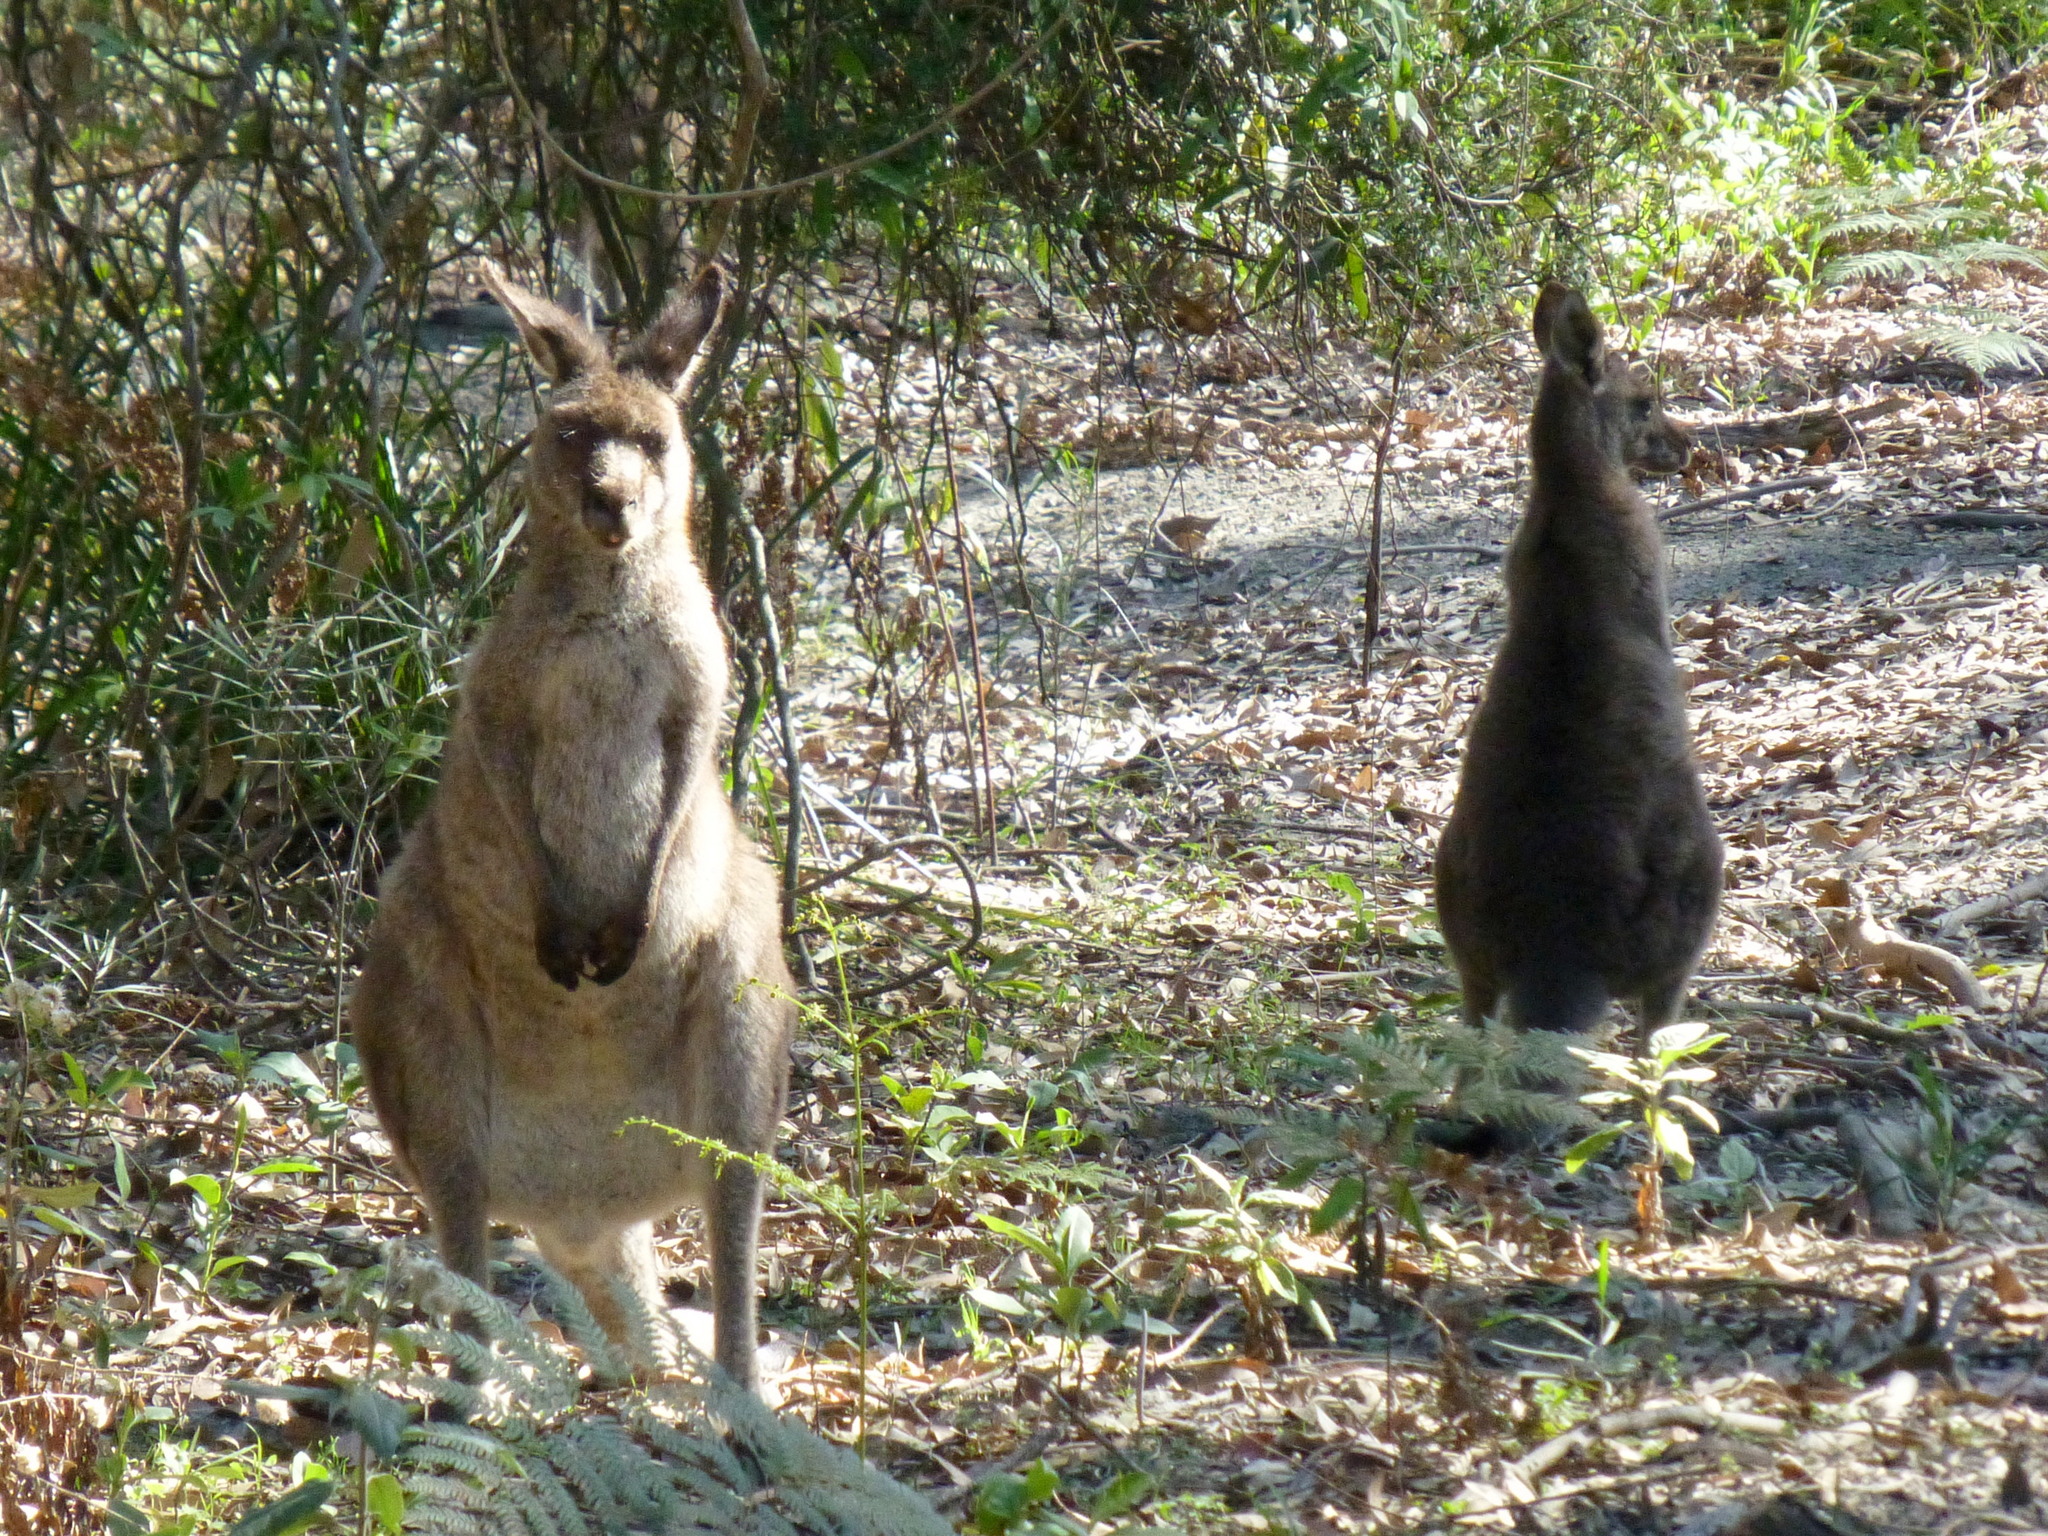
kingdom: Animalia
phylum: Chordata
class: Mammalia
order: Diprotodontia
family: Macropodidae
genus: Macropus
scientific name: Macropus giganteus
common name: Eastern grey kangaroo
